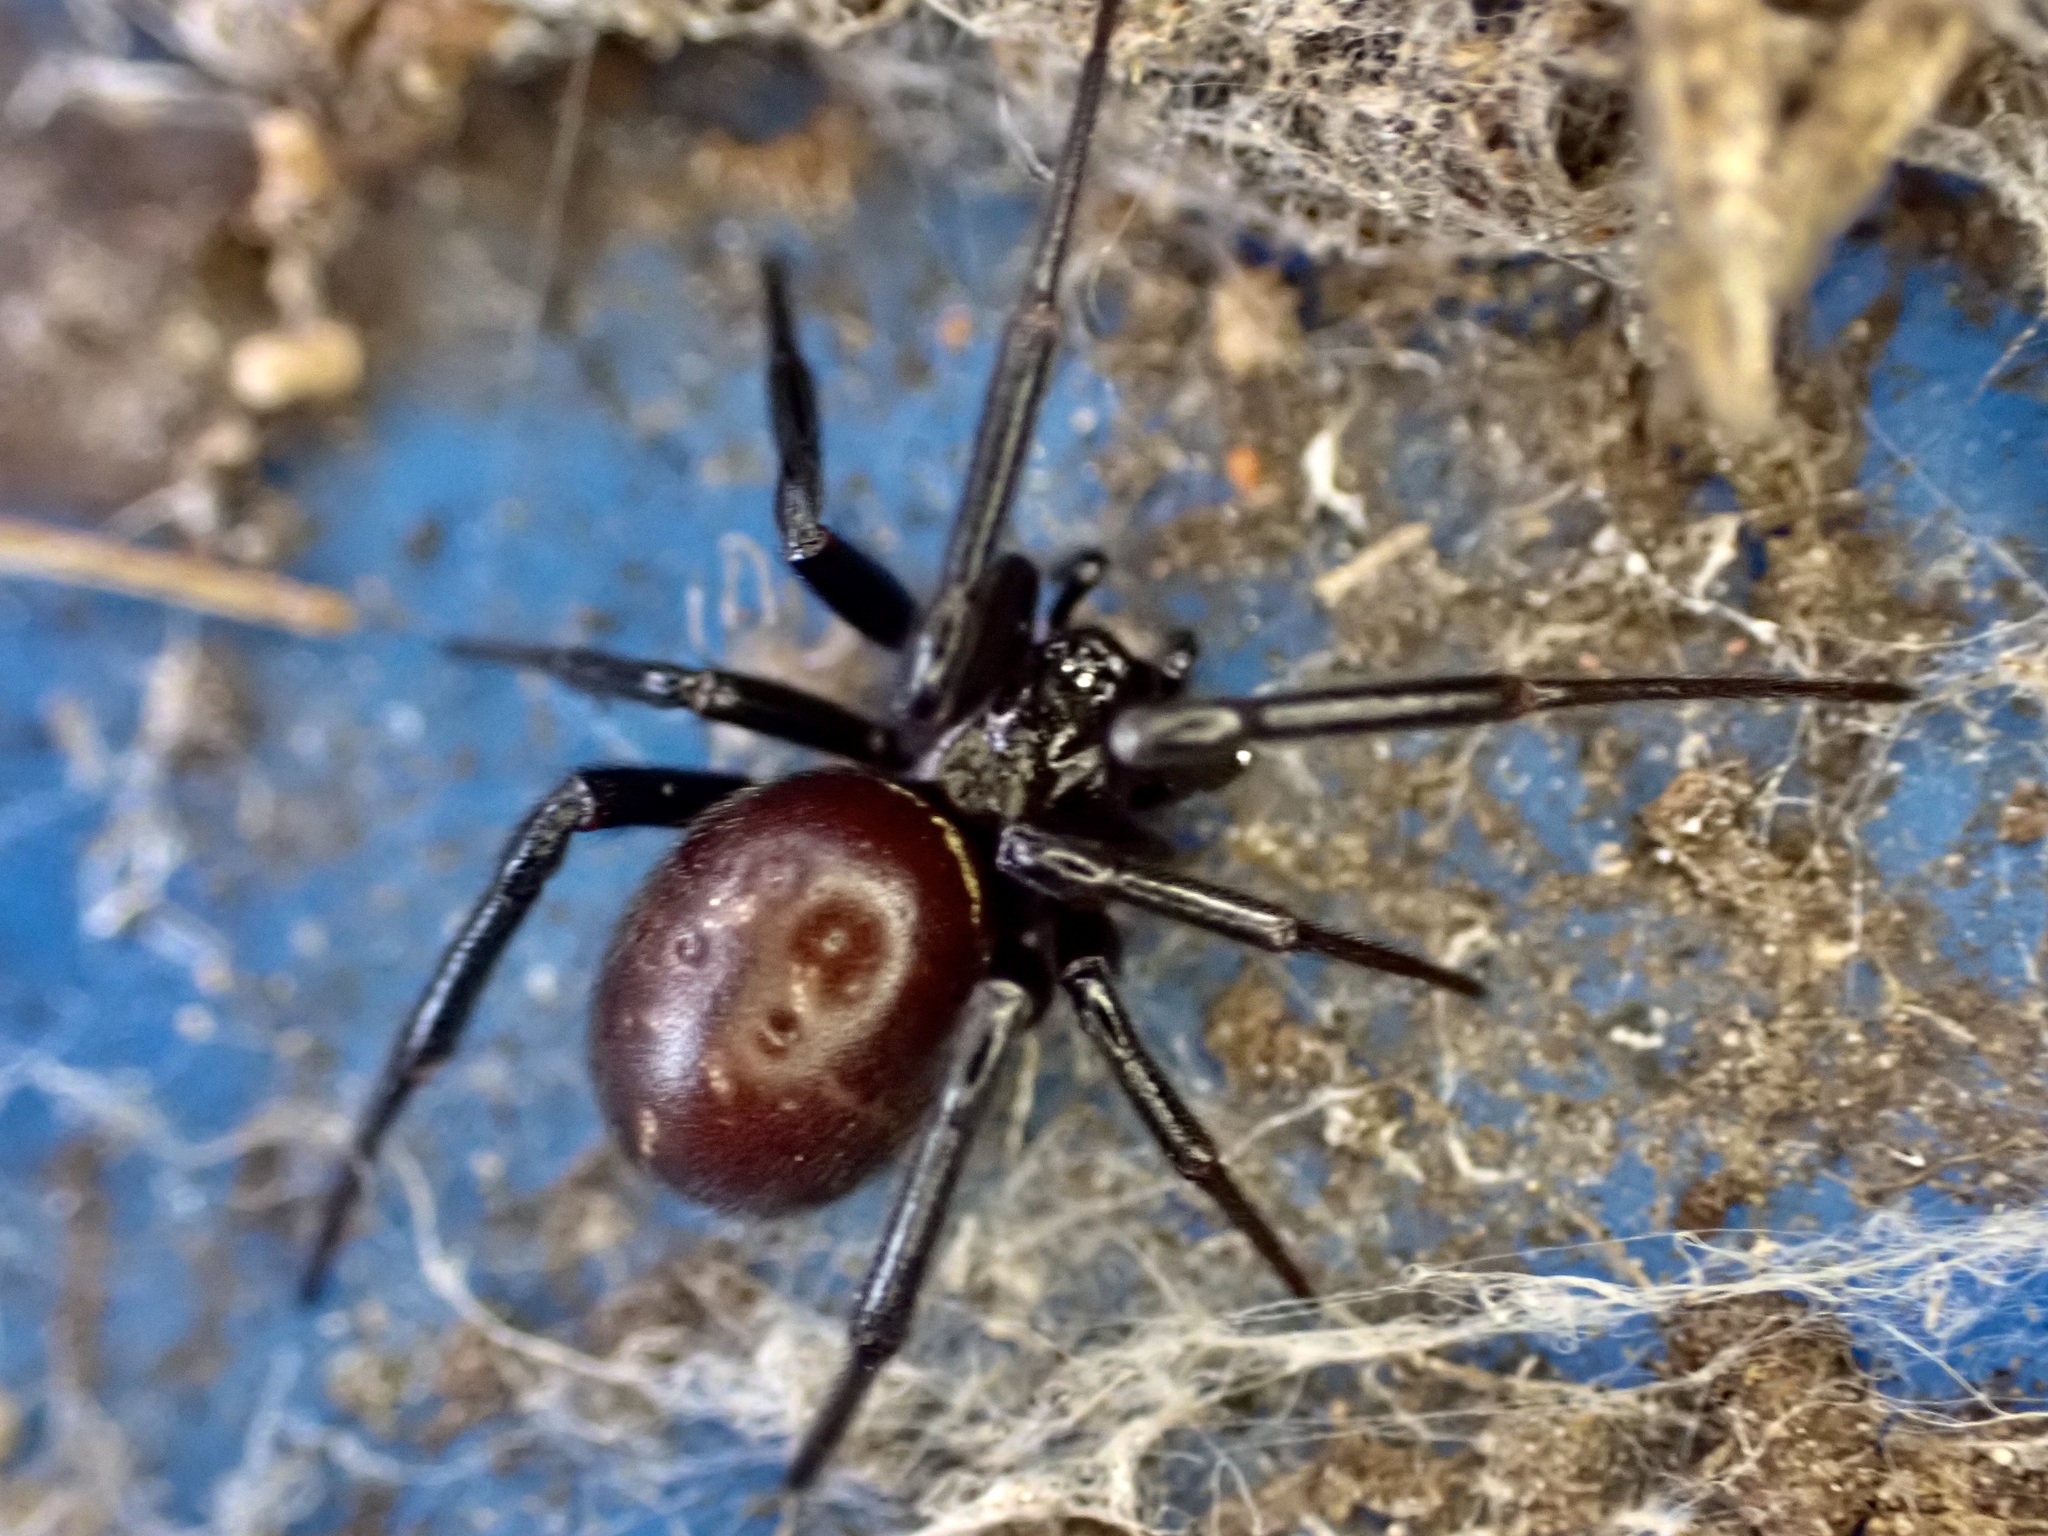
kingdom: Animalia
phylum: Arthropoda
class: Arachnida
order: Araneae
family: Theridiidae
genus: Steatoda
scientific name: Steatoda capensis
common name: Cobweb weaver
